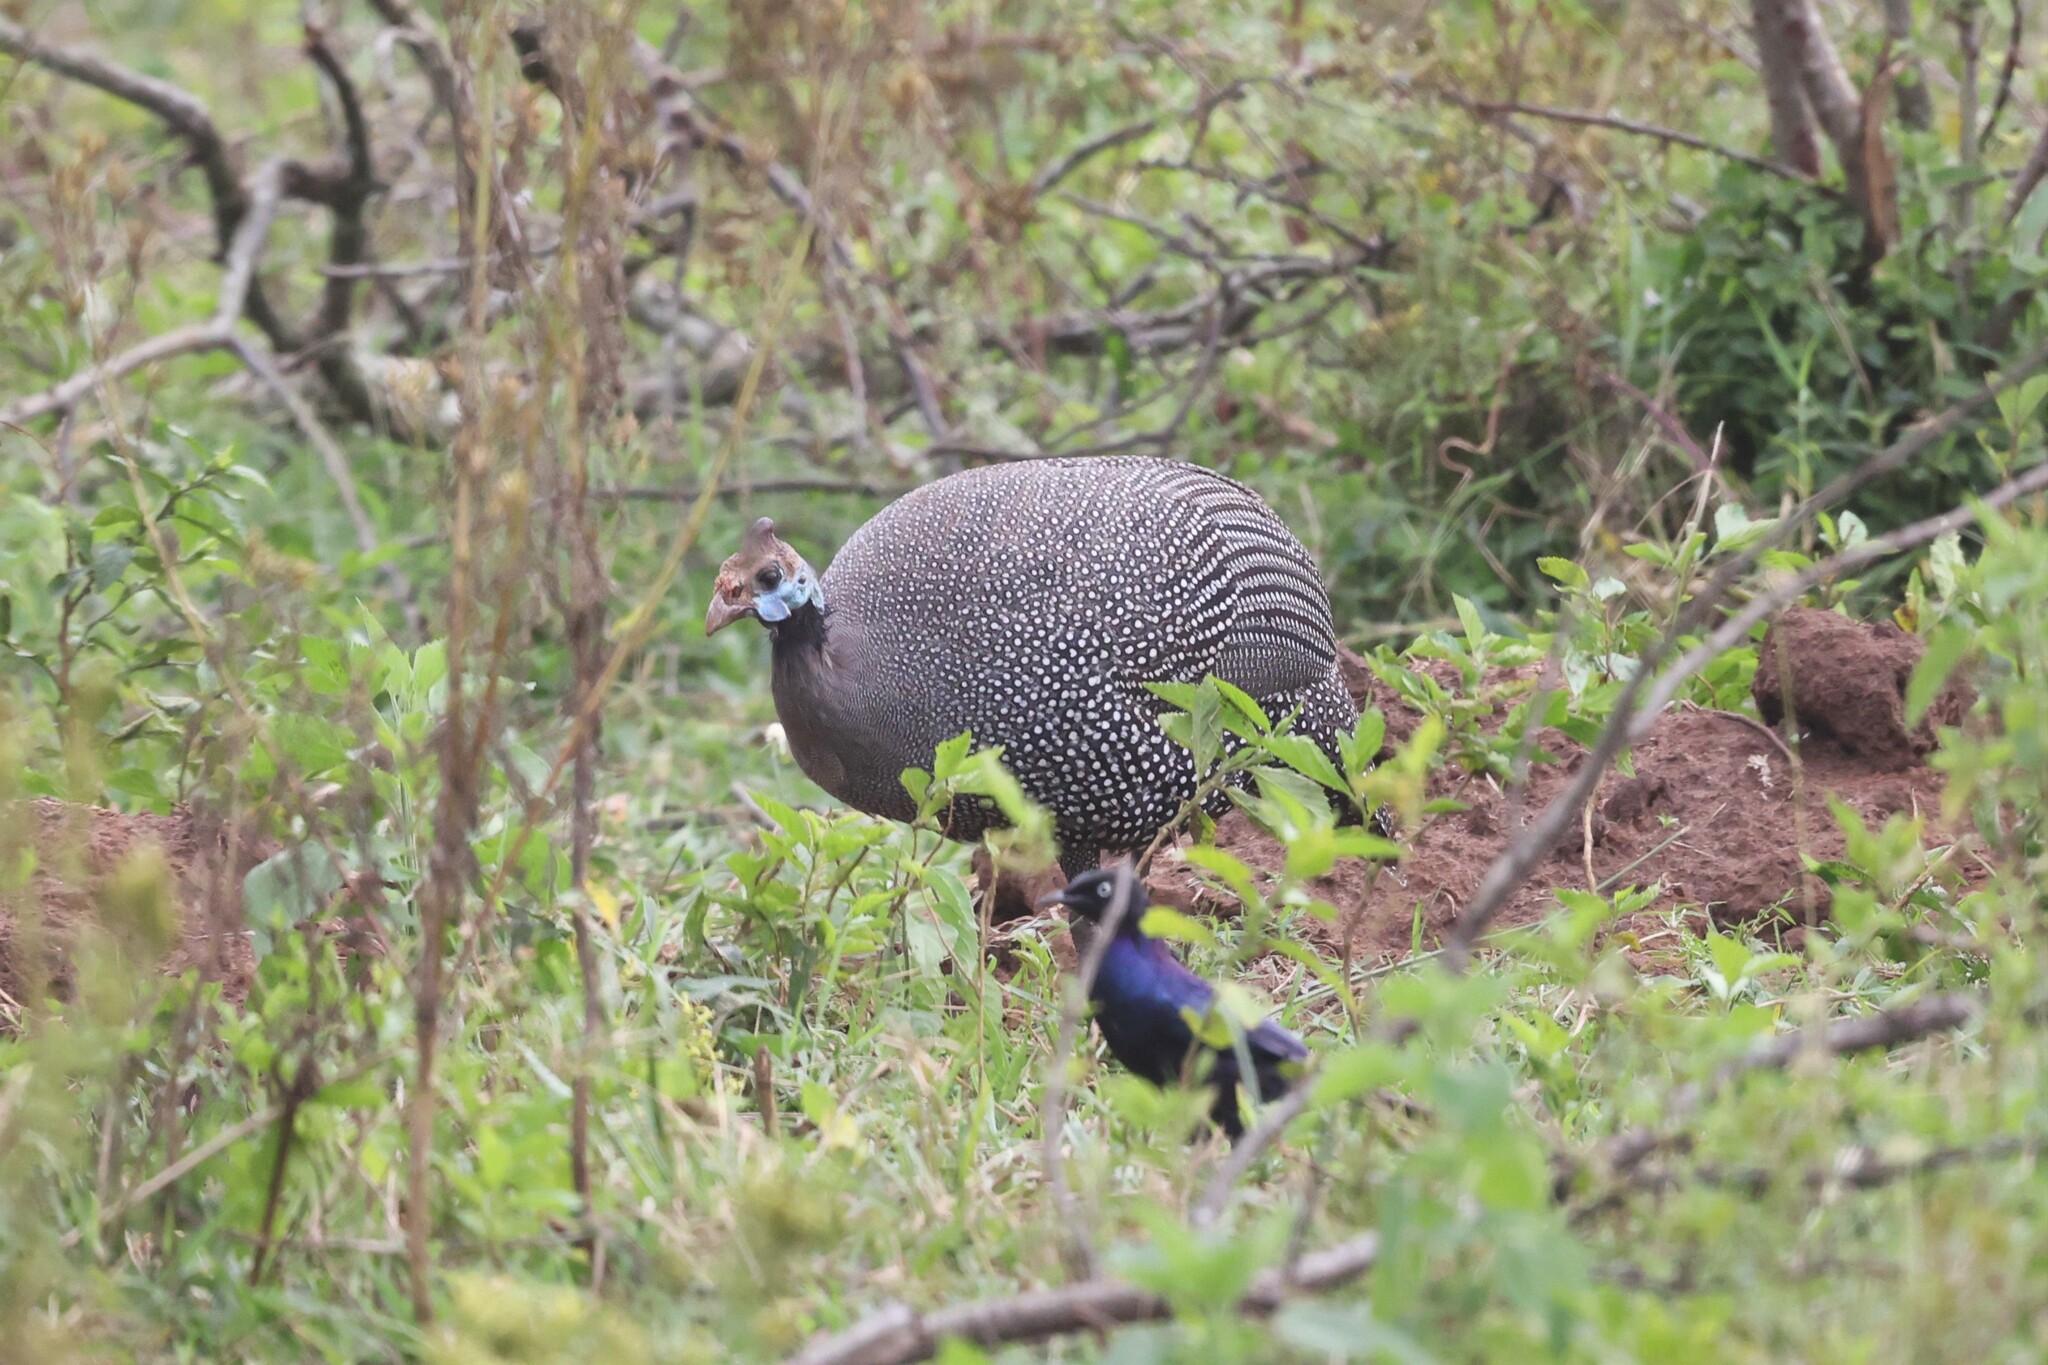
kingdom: Animalia
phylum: Chordata
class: Aves
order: Galliformes
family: Numididae
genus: Numida
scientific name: Numida meleagris
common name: Helmeted guineafowl
